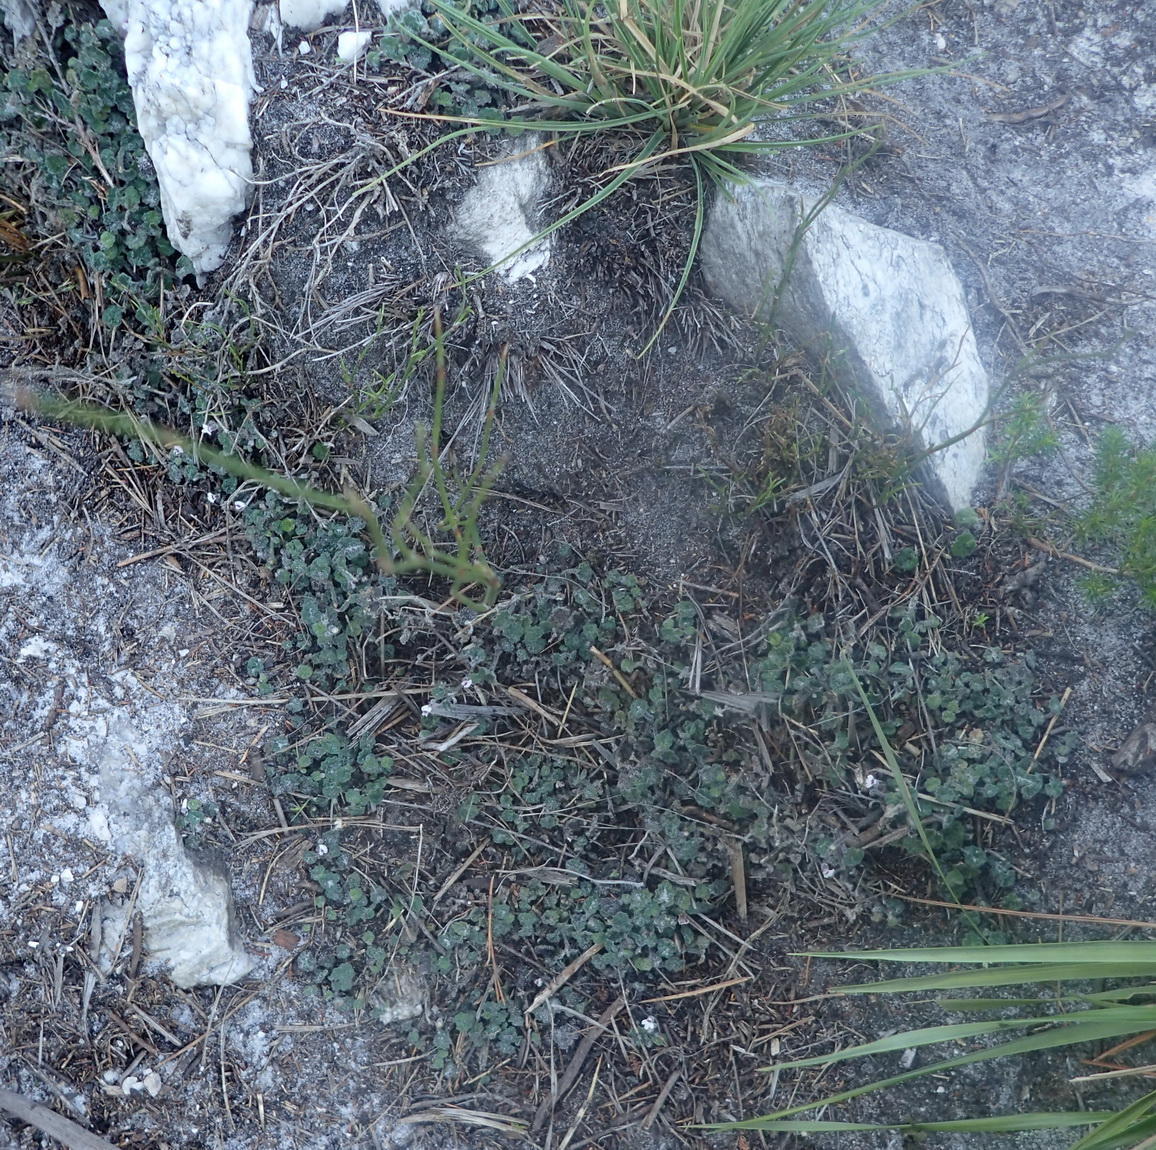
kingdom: Plantae
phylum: Tracheophyta
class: Magnoliopsida
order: Asterales
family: Campanulaceae
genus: Lobelia
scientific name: Lobelia ardisiandroides
